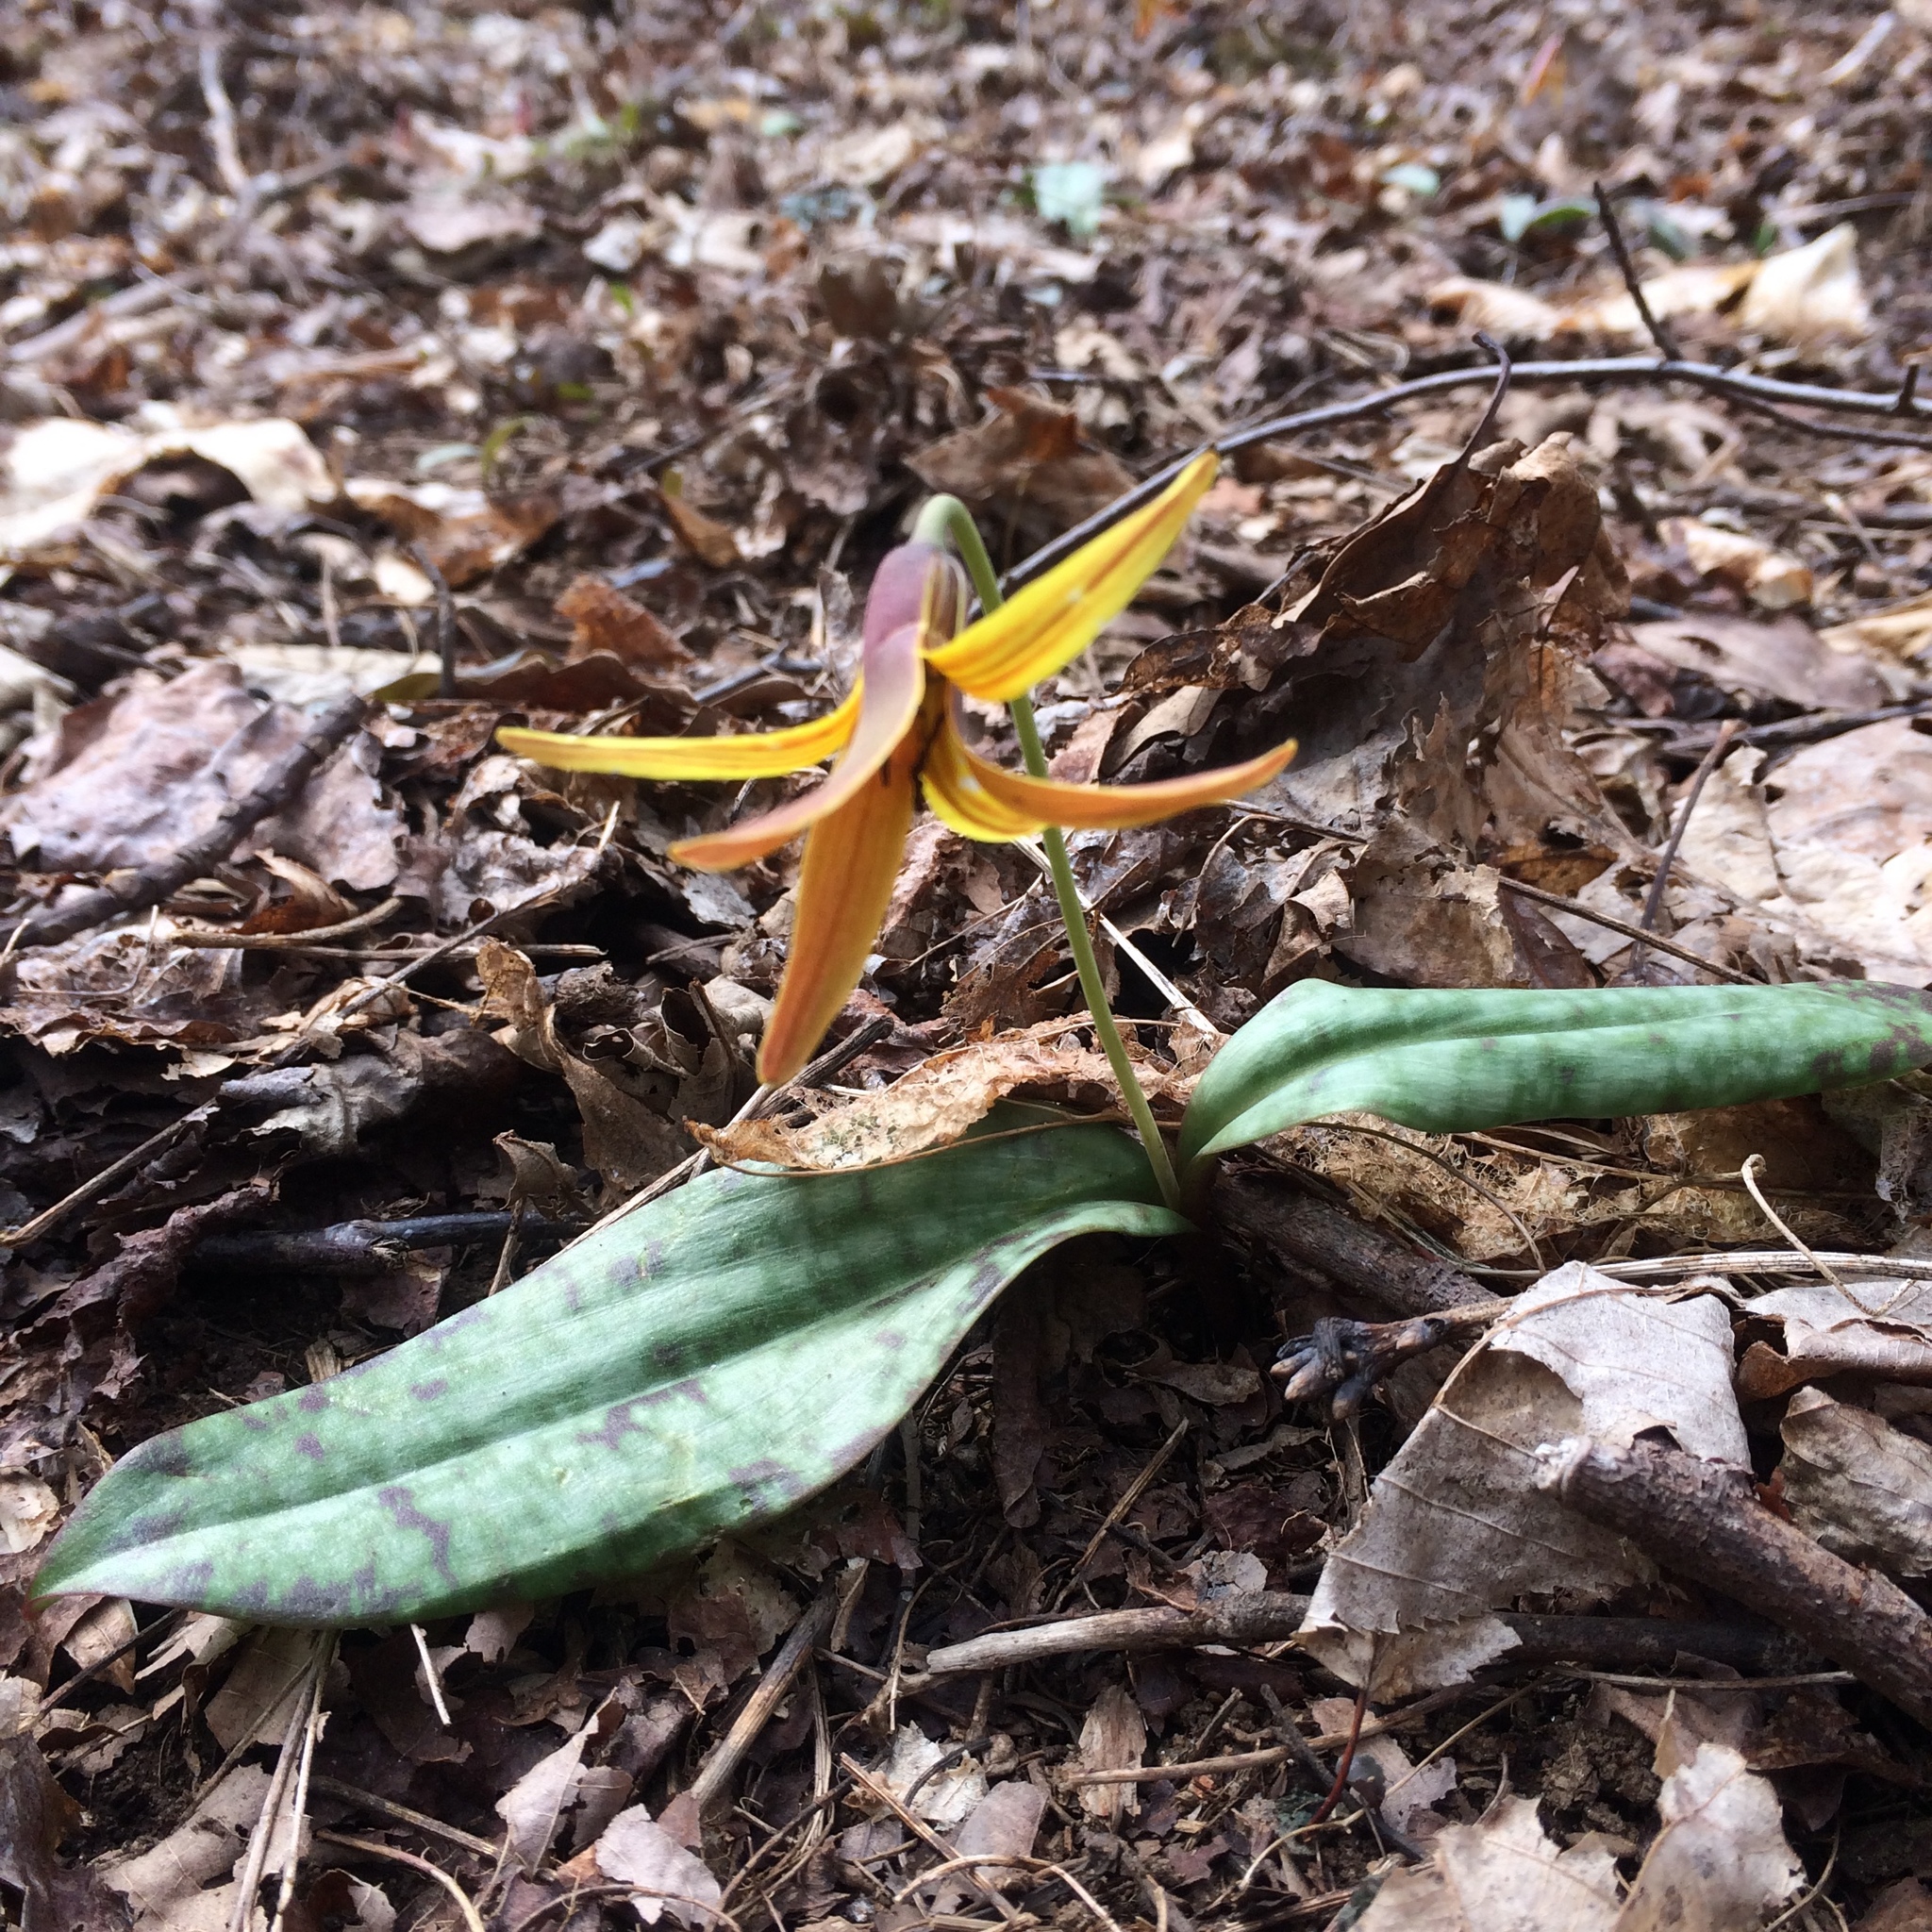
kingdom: Plantae
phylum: Tracheophyta
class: Liliopsida
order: Liliales
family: Liliaceae
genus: Erythronium
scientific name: Erythronium americanum
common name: Yellow adder's-tongue
